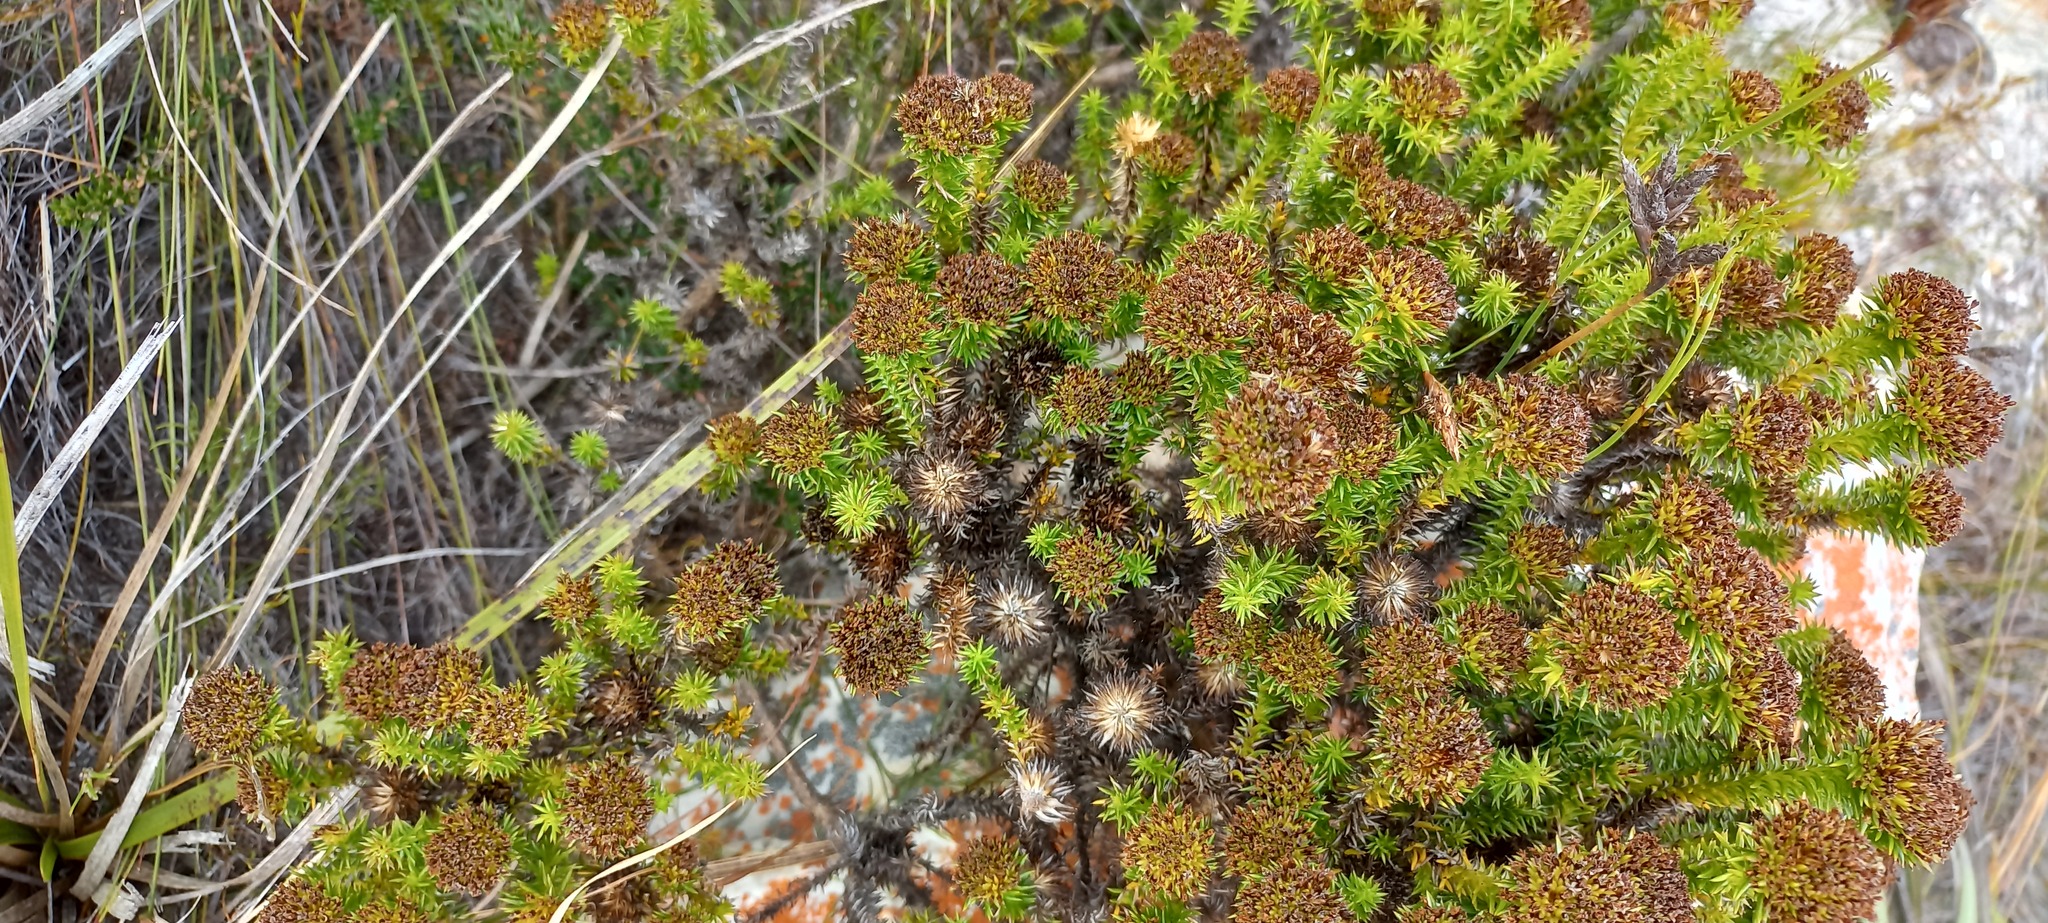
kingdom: Plantae
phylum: Tracheophyta
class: Magnoliopsida
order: Asterales
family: Asteraceae
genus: Stoebe
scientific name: Stoebe aethiopica
